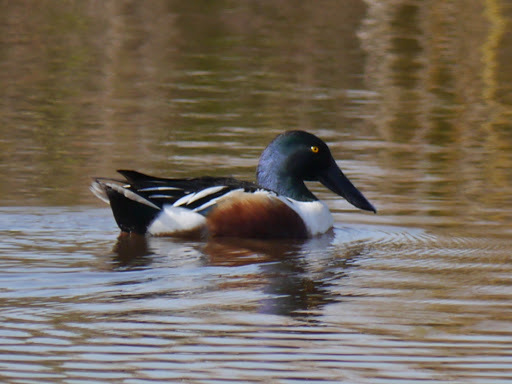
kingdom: Animalia
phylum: Chordata
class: Aves
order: Anseriformes
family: Anatidae
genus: Spatula
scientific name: Spatula clypeata
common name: Northern shoveler
